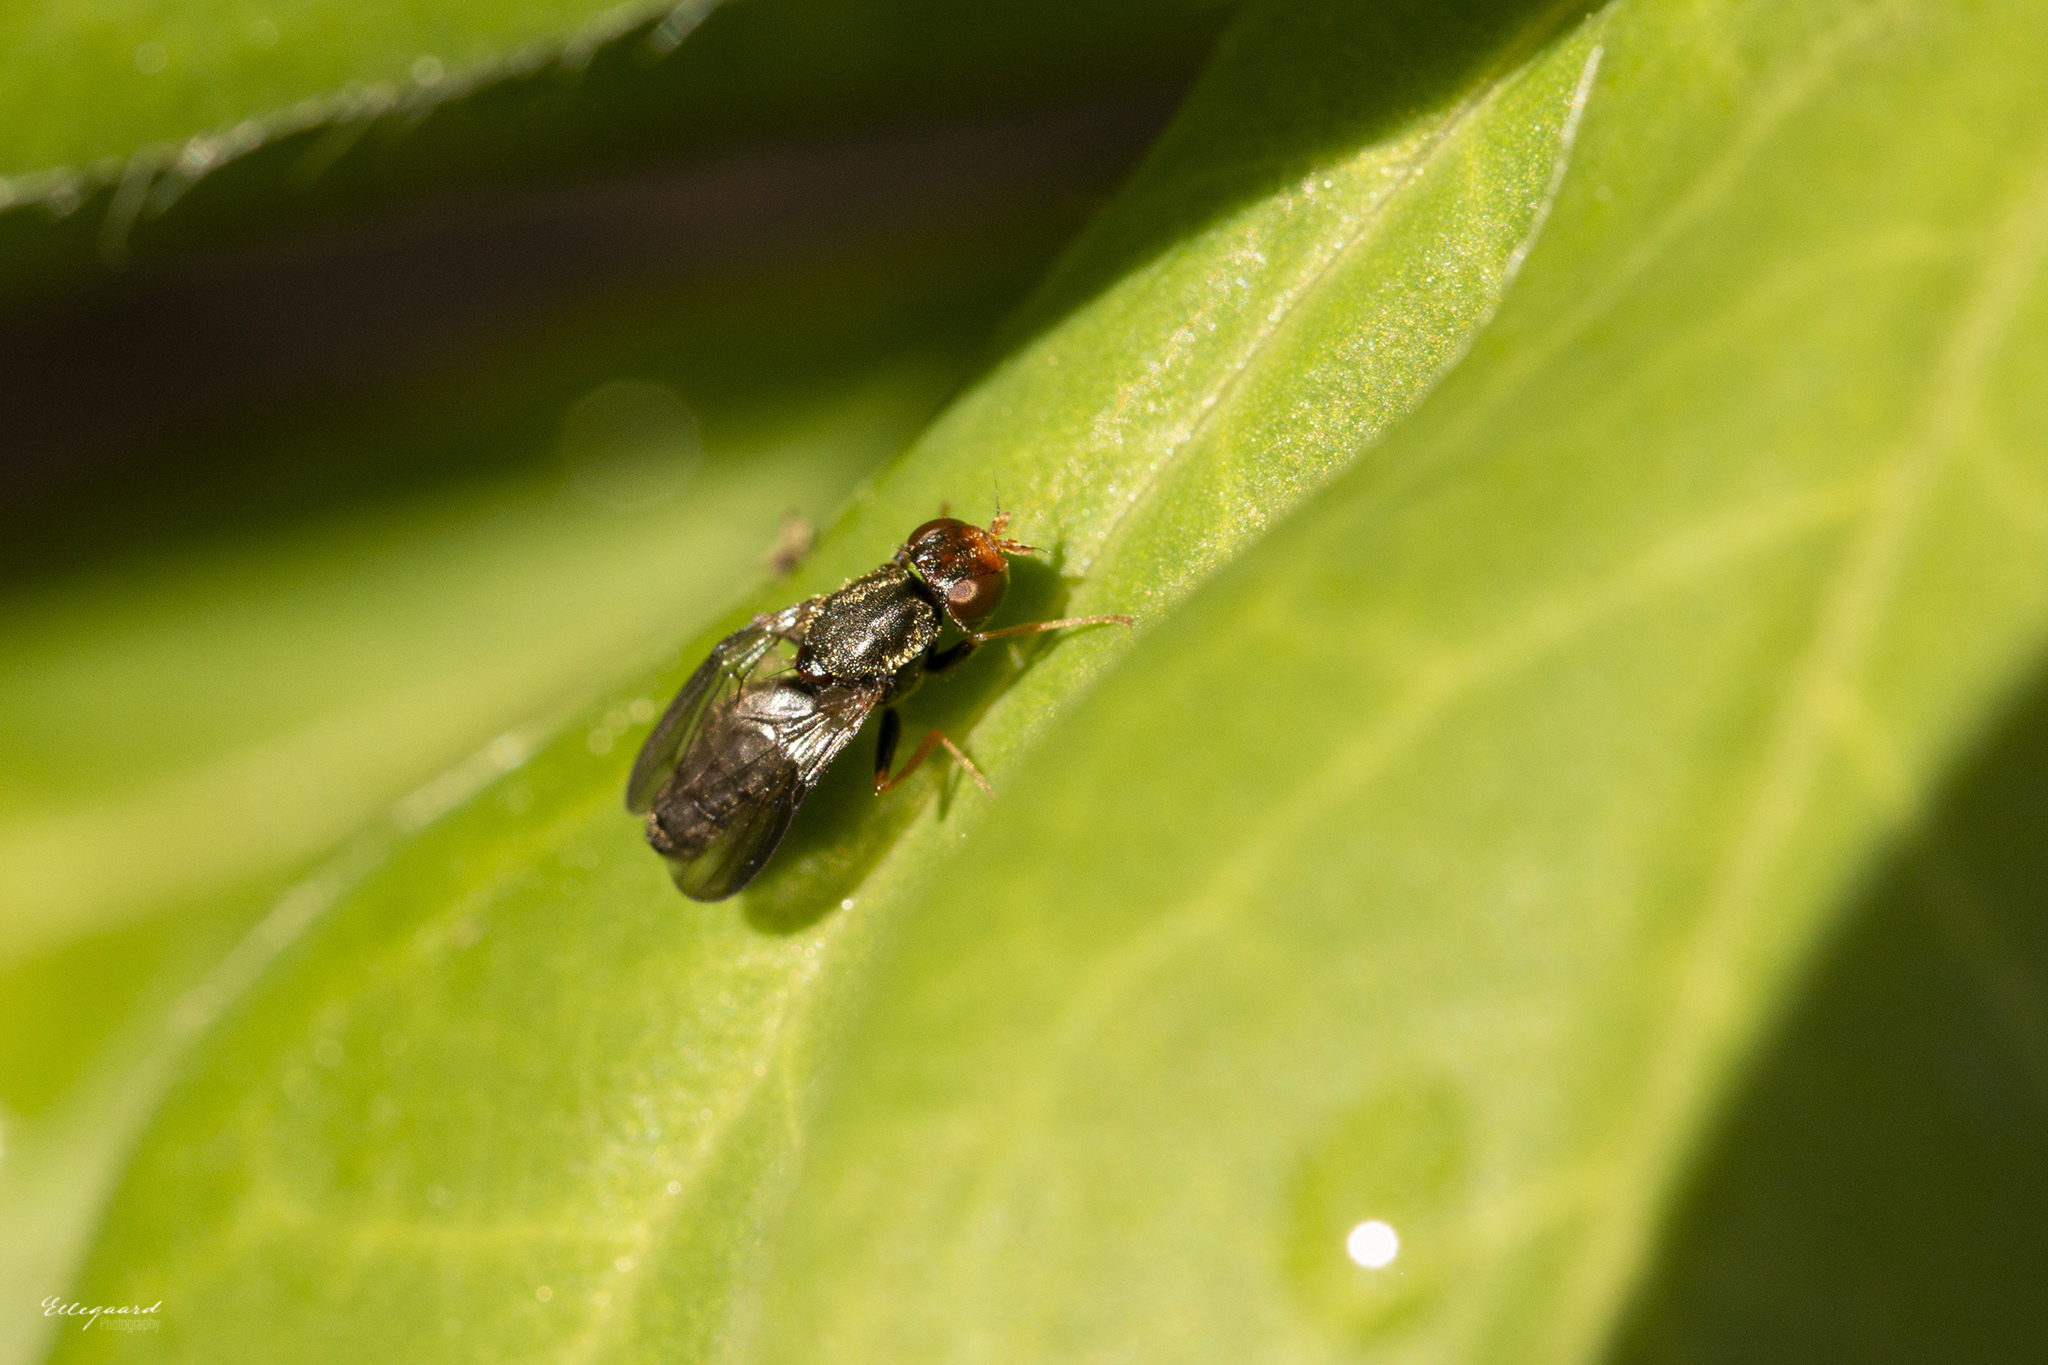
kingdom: Animalia
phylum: Arthropoda
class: Insecta
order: Diptera
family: Psilidae
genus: Chyliza
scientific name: Chyliza leguminicola
